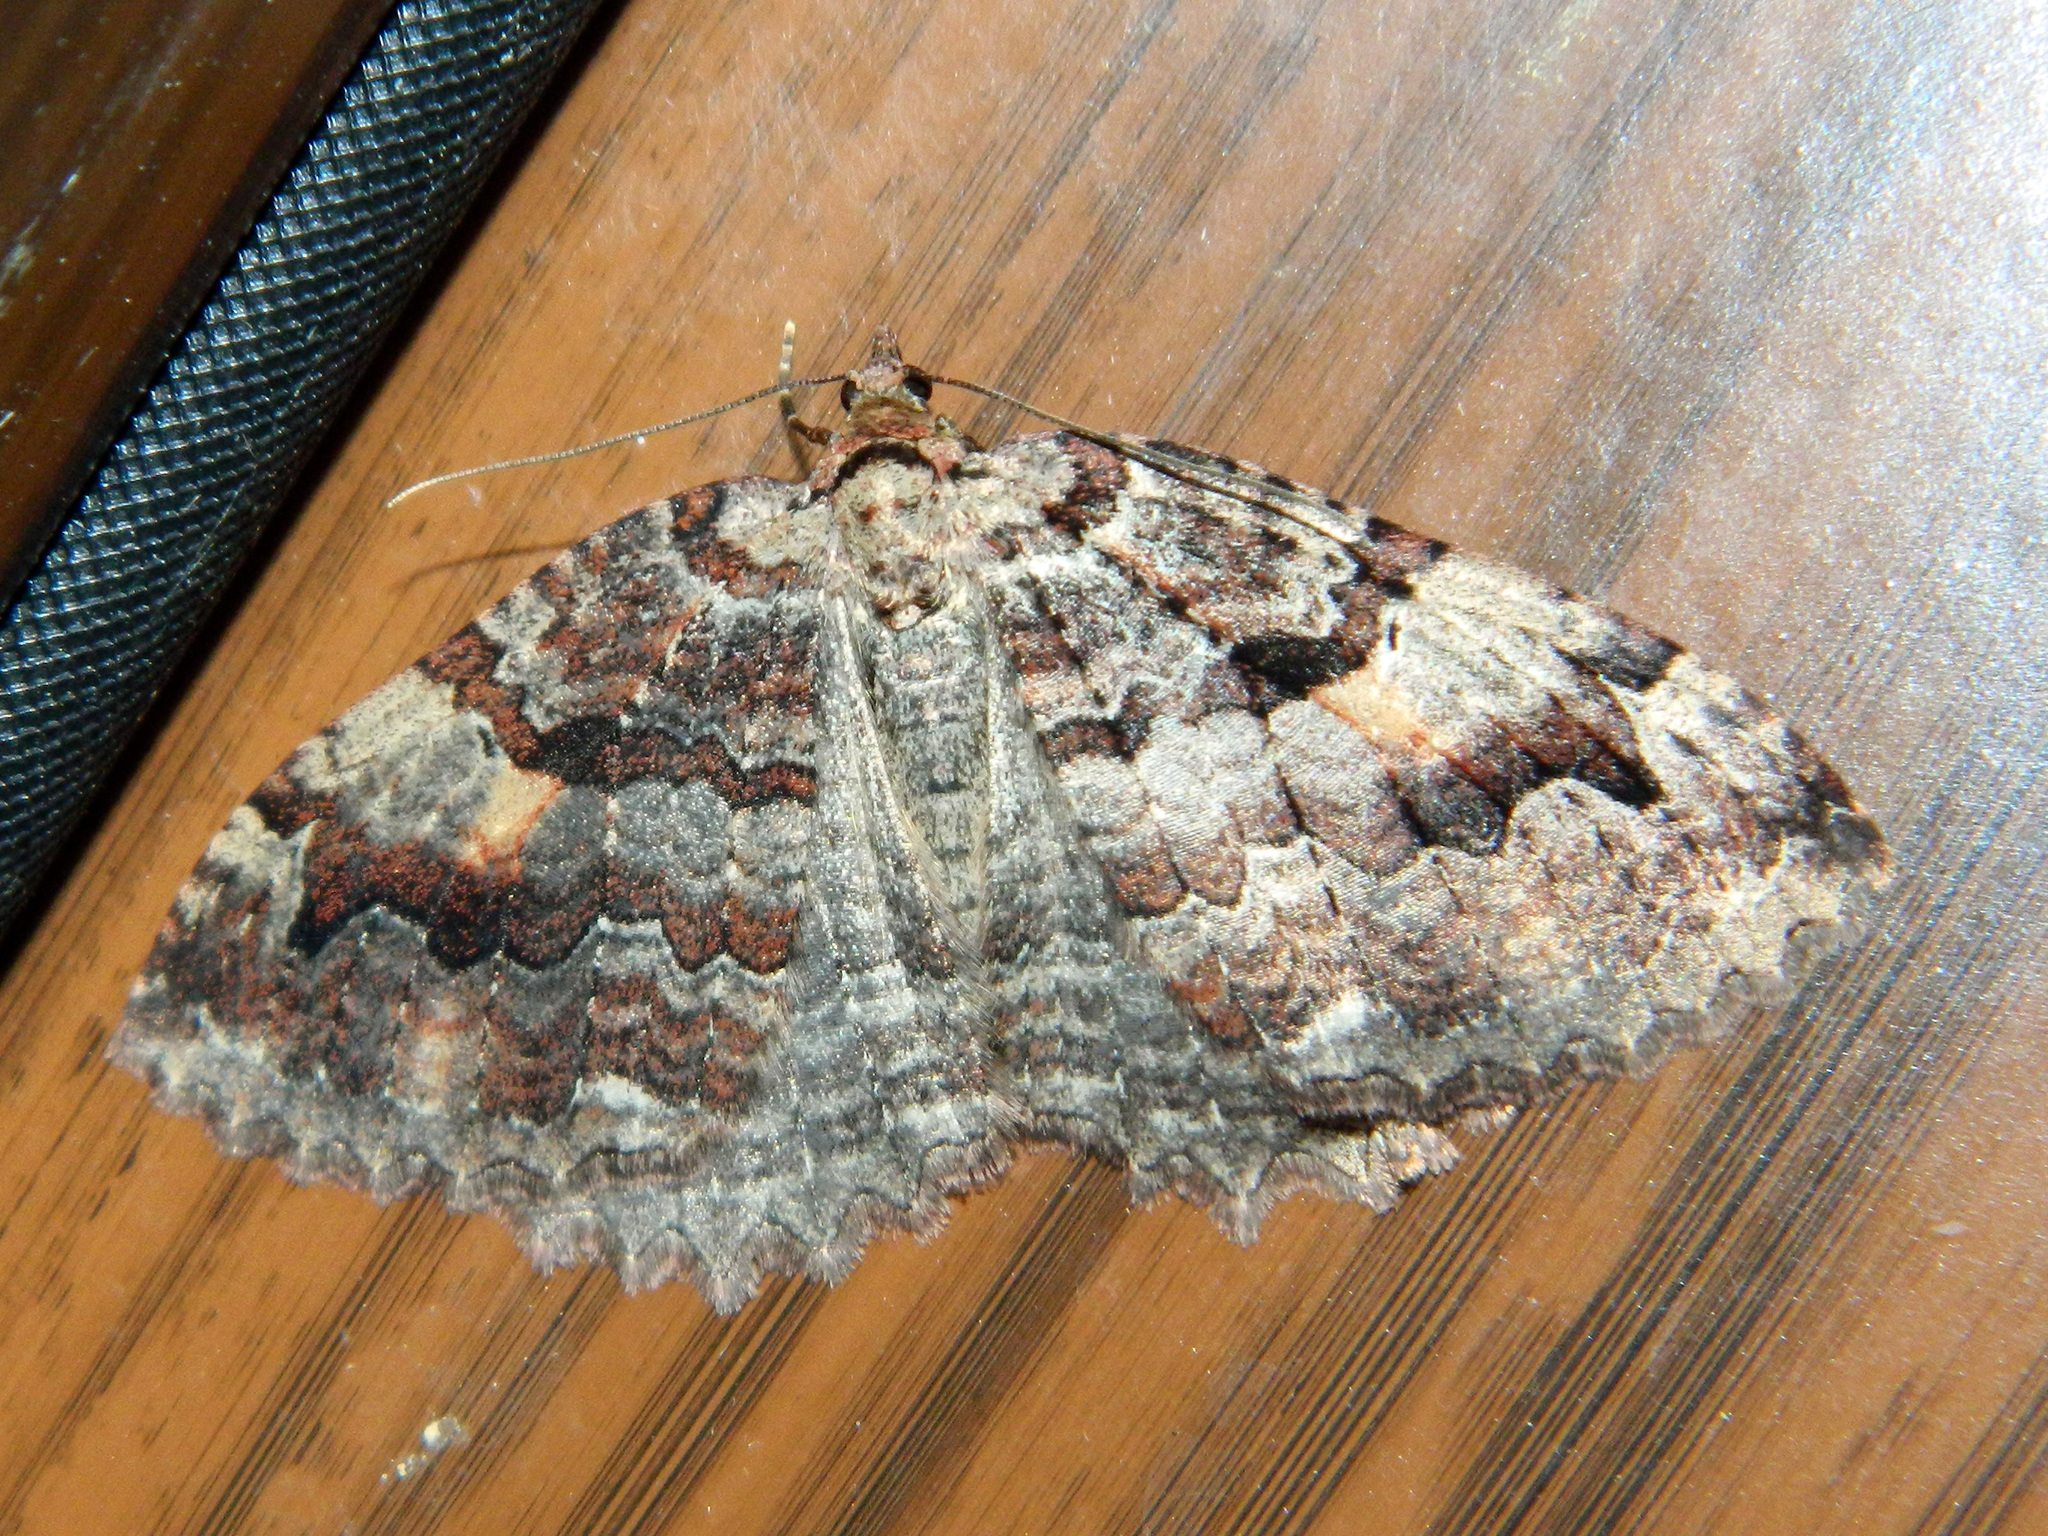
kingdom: Animalia
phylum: Arthropoda
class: Insecta
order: Lepidoptera
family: Geometridae
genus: Triphosa
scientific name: Triphosa haesitata
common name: Tissue moth
